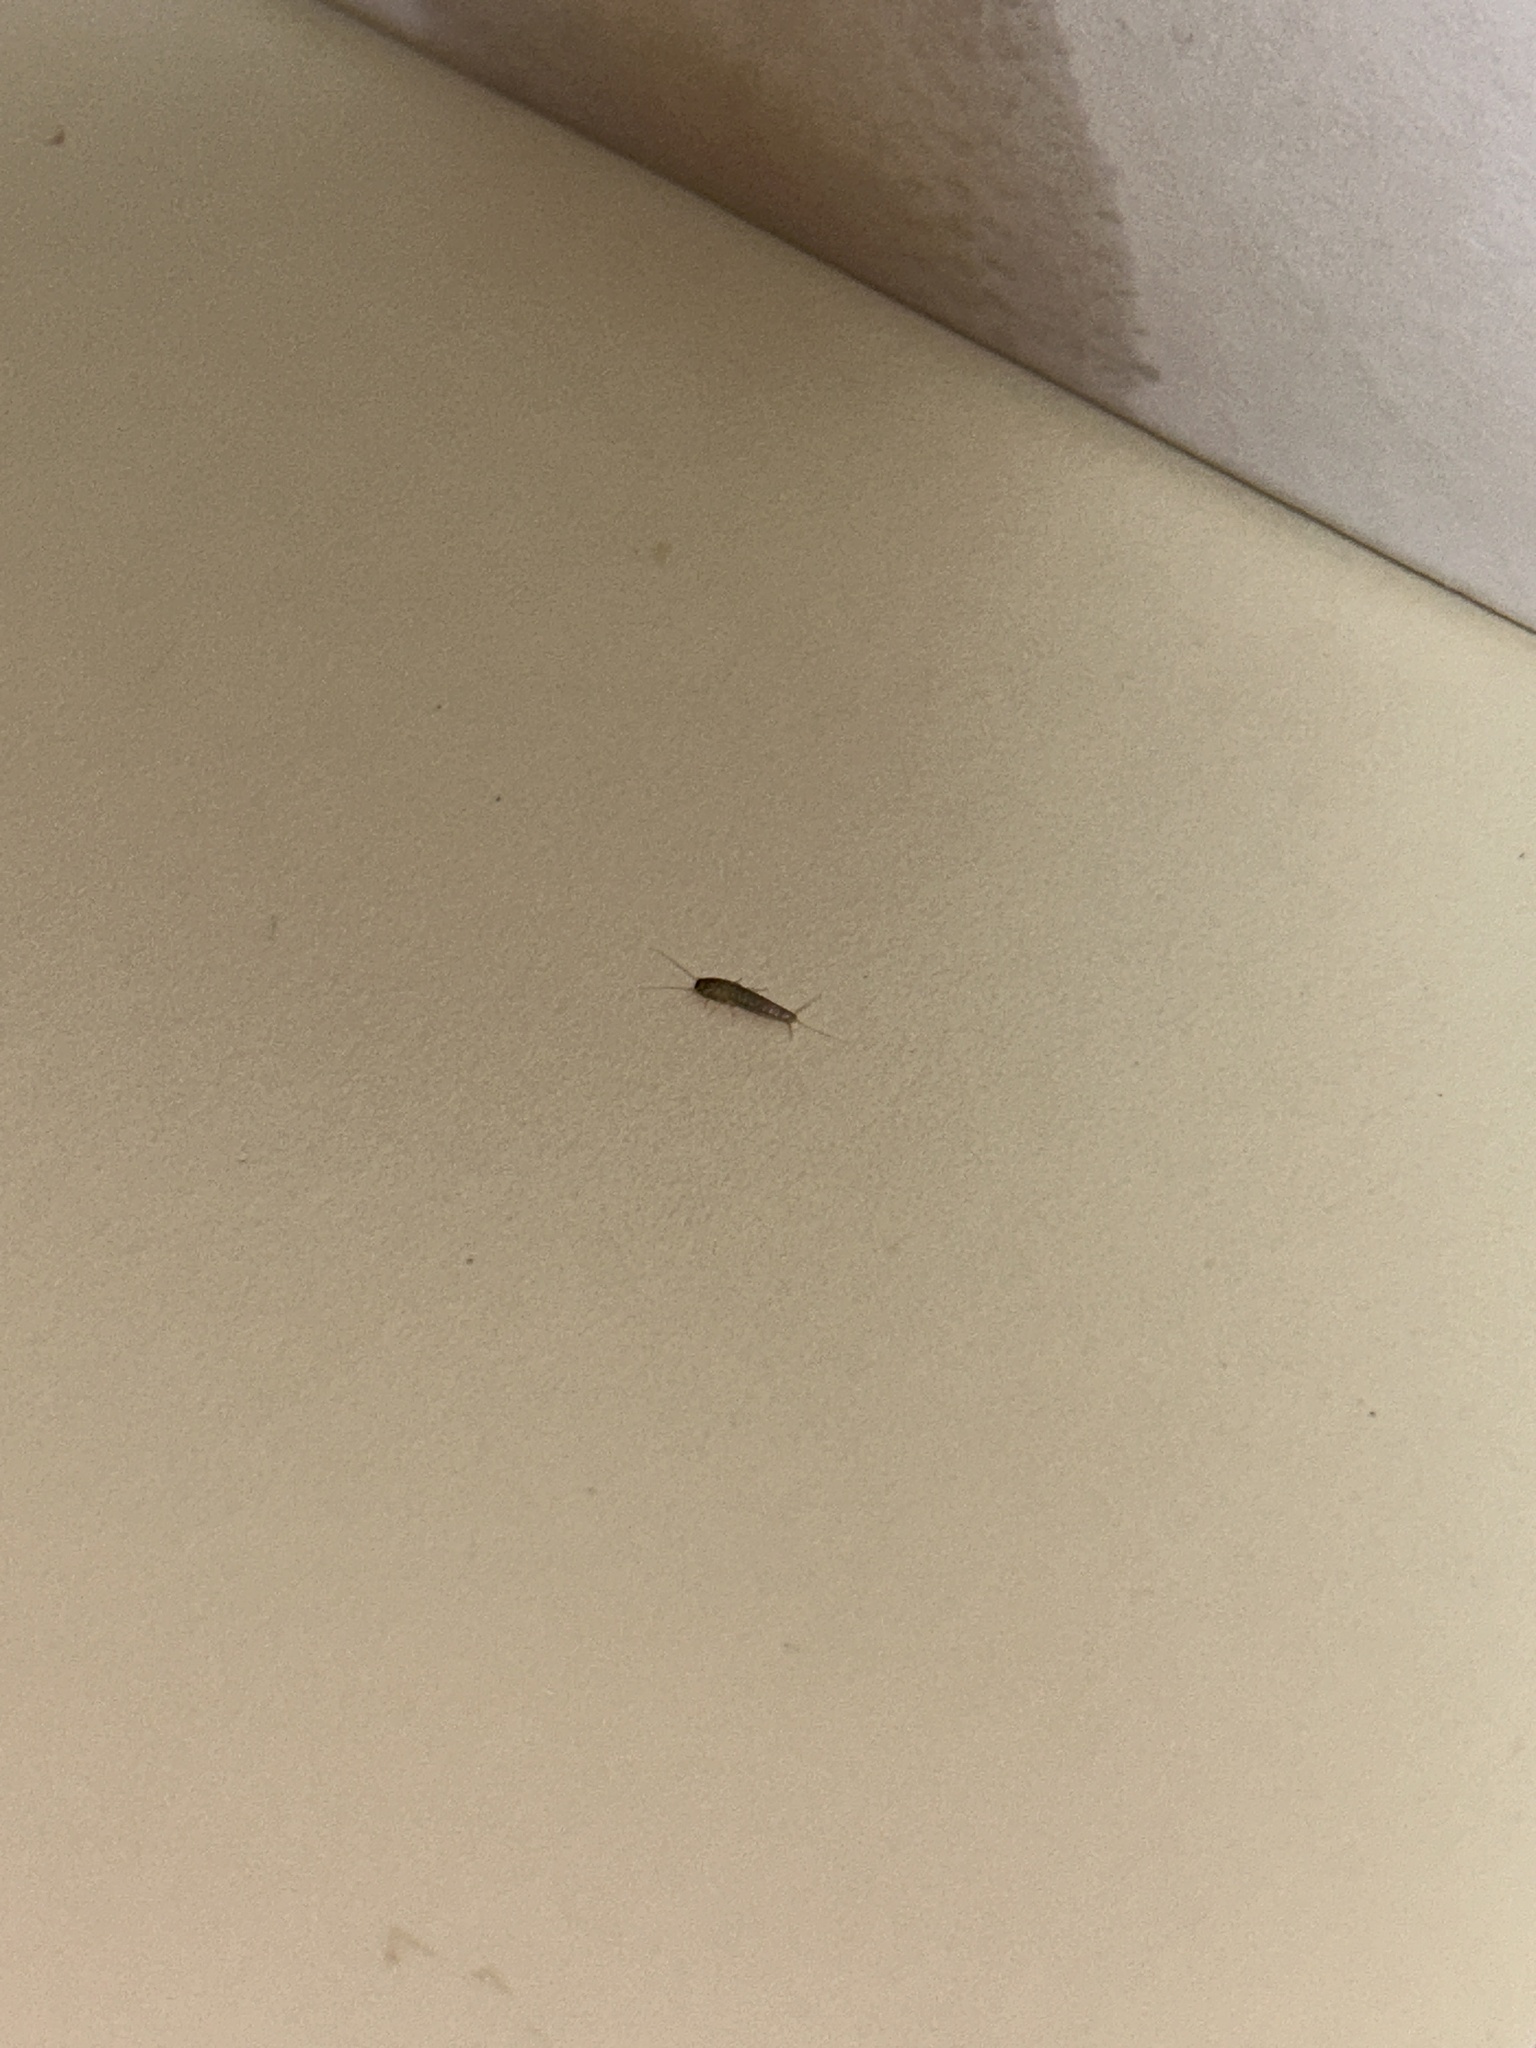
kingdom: Animalia
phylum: Arthropoda
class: Insecta
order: Zygentoma
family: Lepismatidae
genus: Lepisma
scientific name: Lepisma saccharinum
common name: Silverfish
